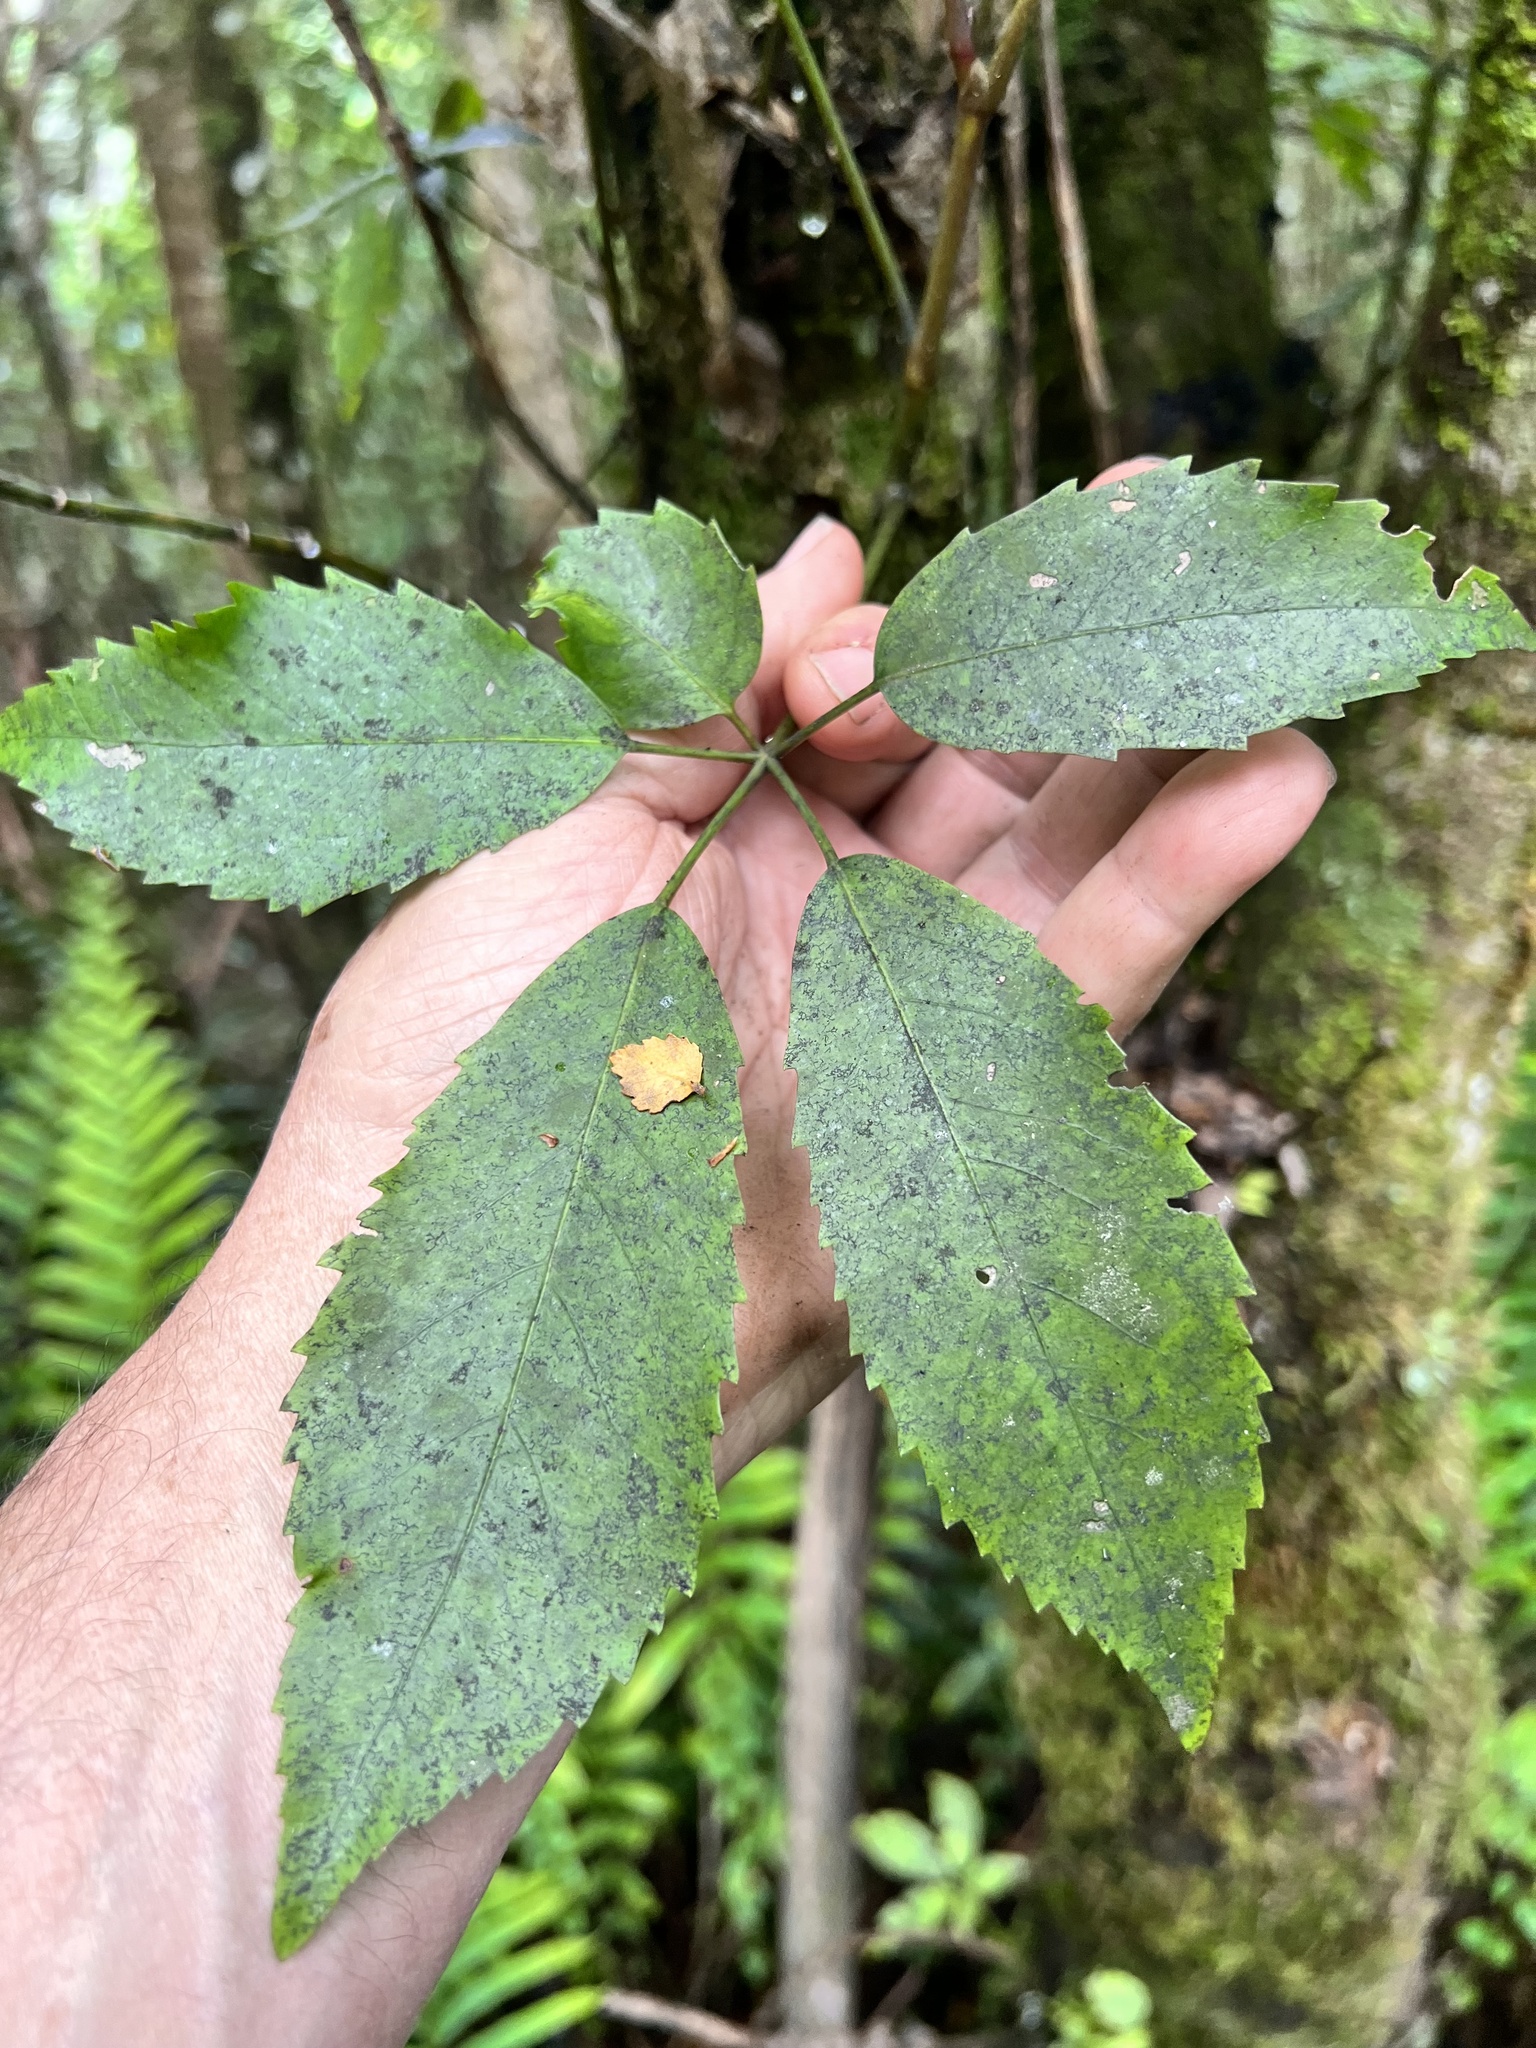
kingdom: Plantae
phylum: Tracheophyta
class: Magnoliopsida
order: Apiales
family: Araliaceae
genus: Neopanax
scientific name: Neopanax arboreus
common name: Five-fingers
